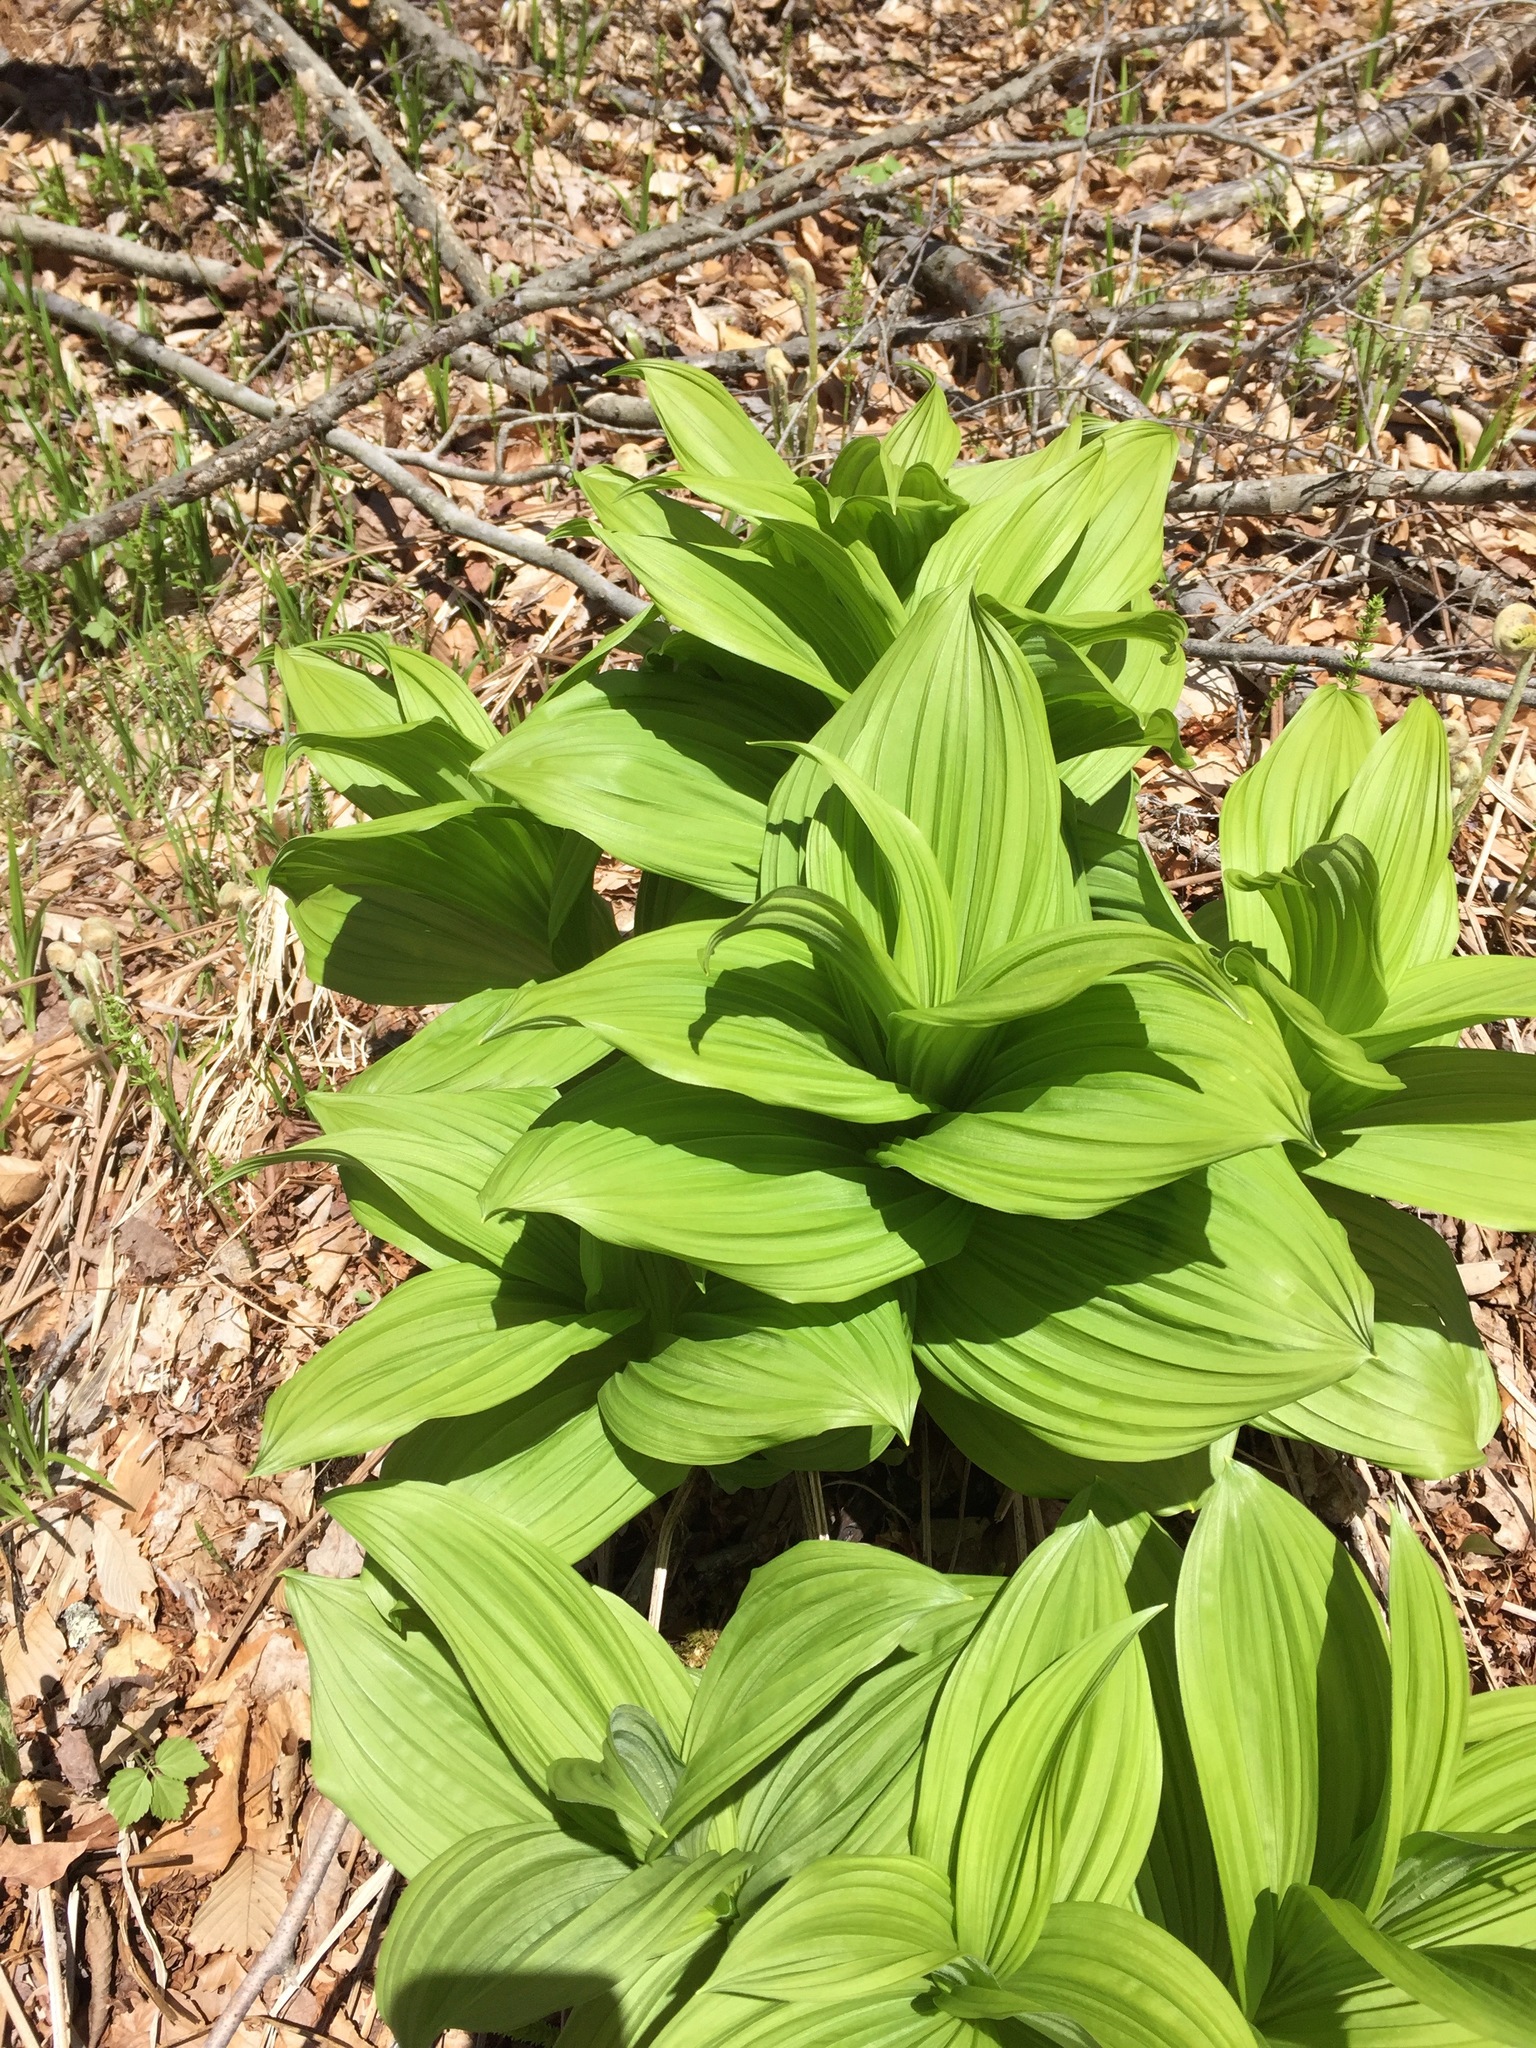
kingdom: Plantae
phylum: Tracheophyta
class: Liliopsida
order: Liliales
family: Melanthiaceae
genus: Veratrum
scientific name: Veratrum viride
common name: American false hellebore
